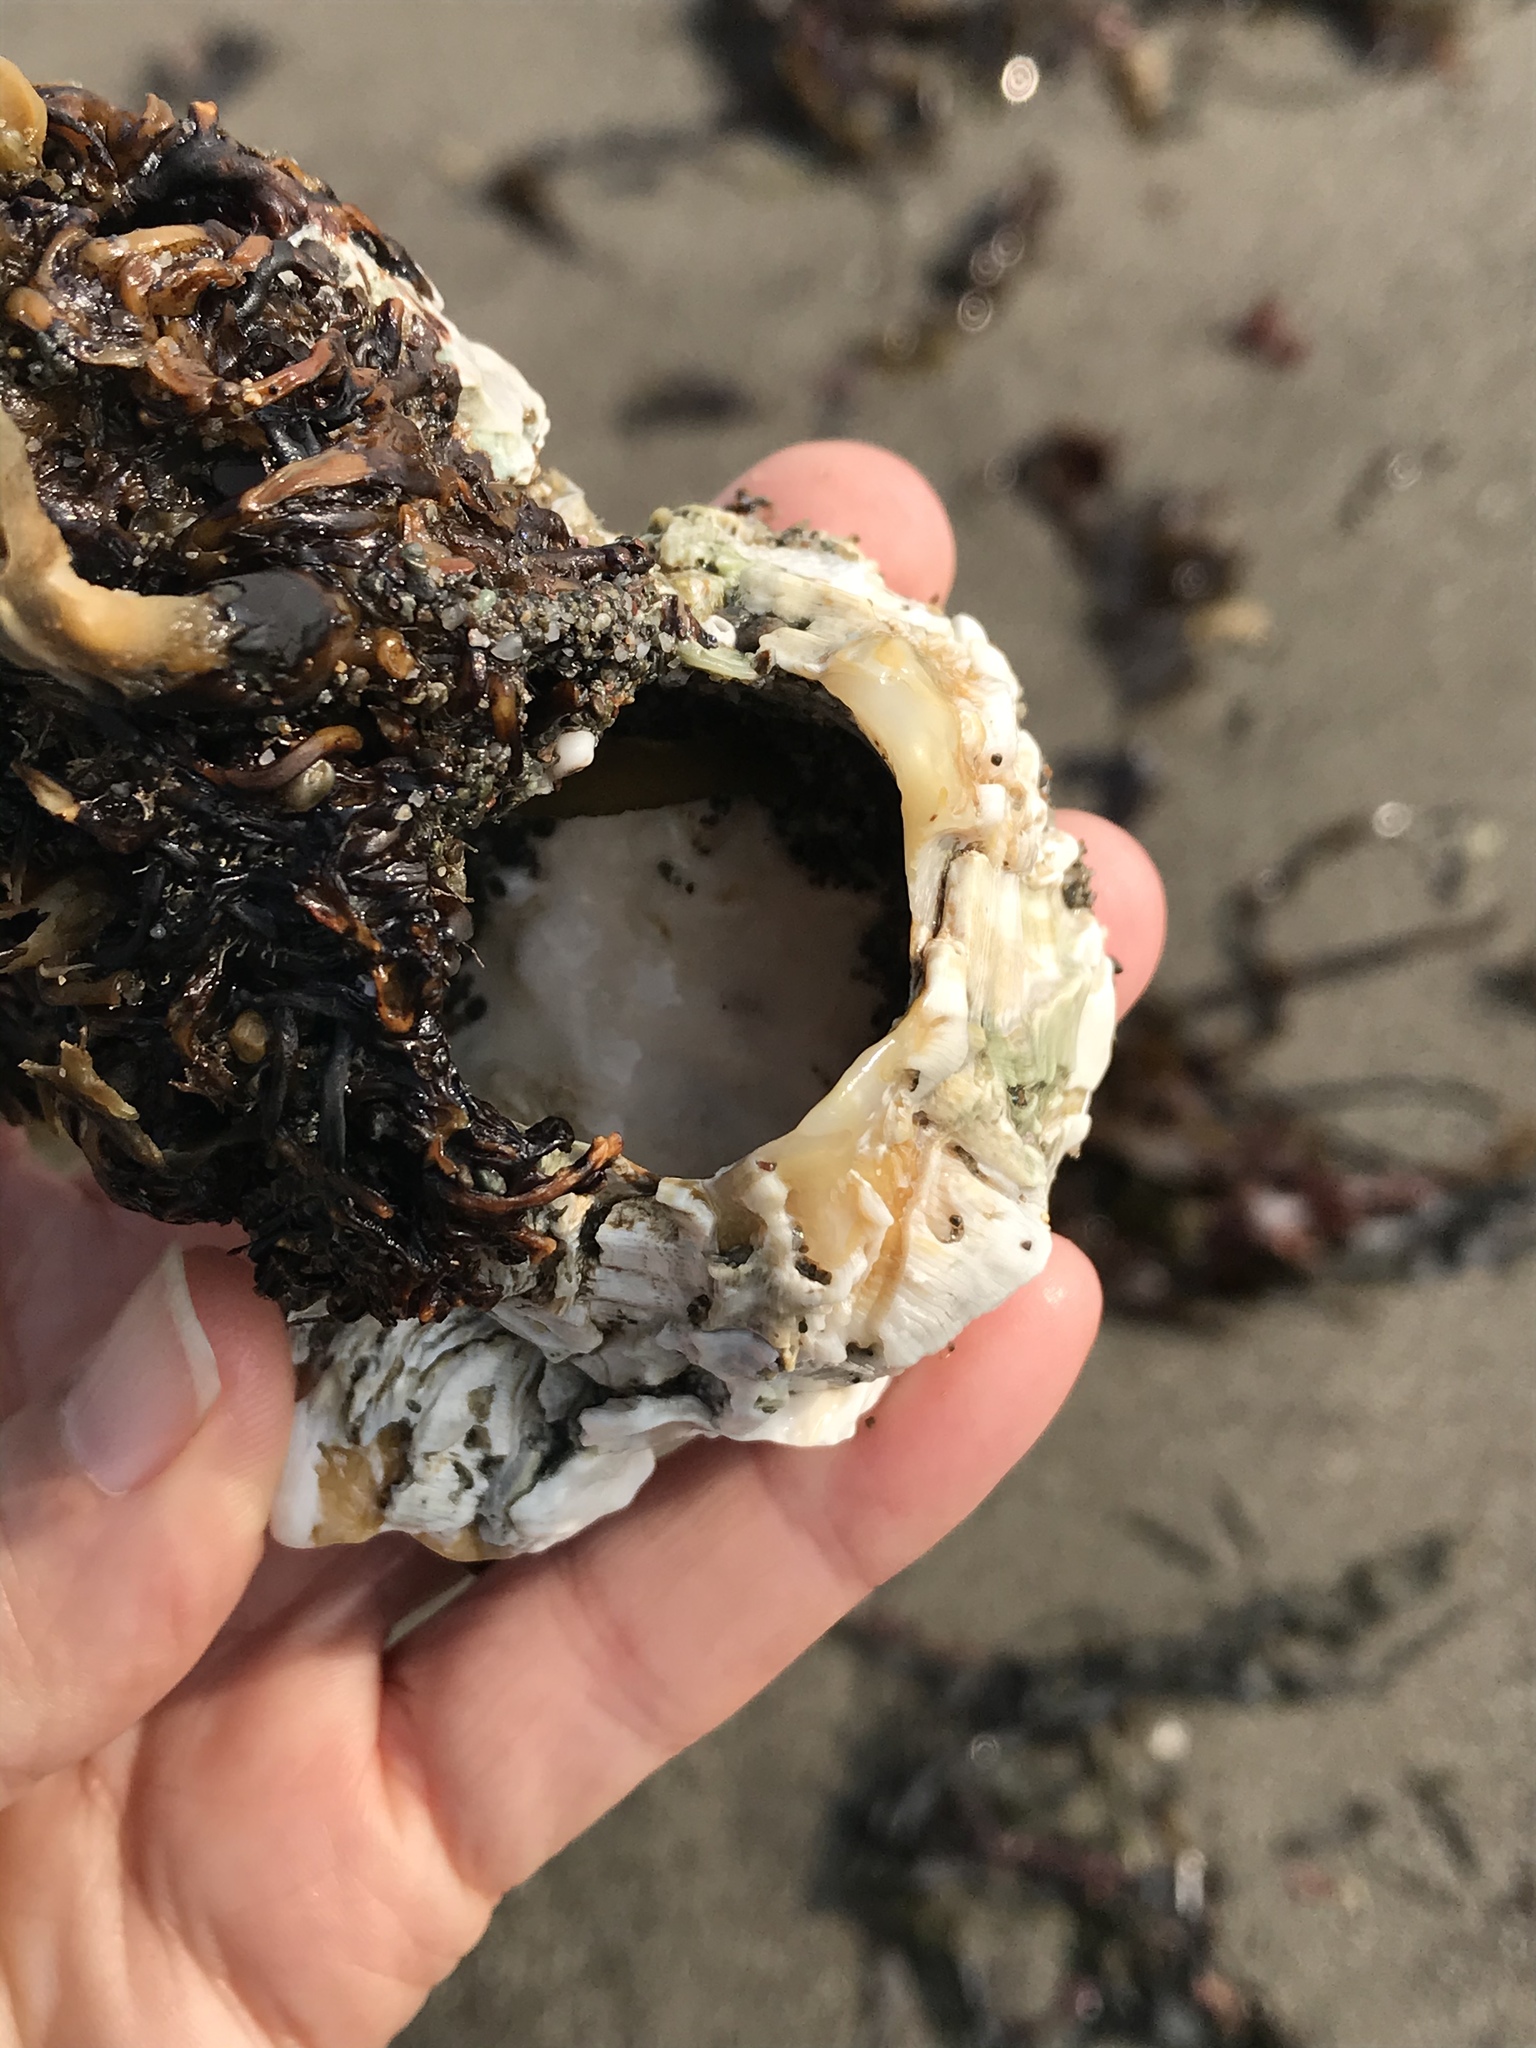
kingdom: Animalia
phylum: Arthropoda
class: Maxillopoda
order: Sessilia
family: Balanidae
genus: Balanus
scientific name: Balanus nubilus
